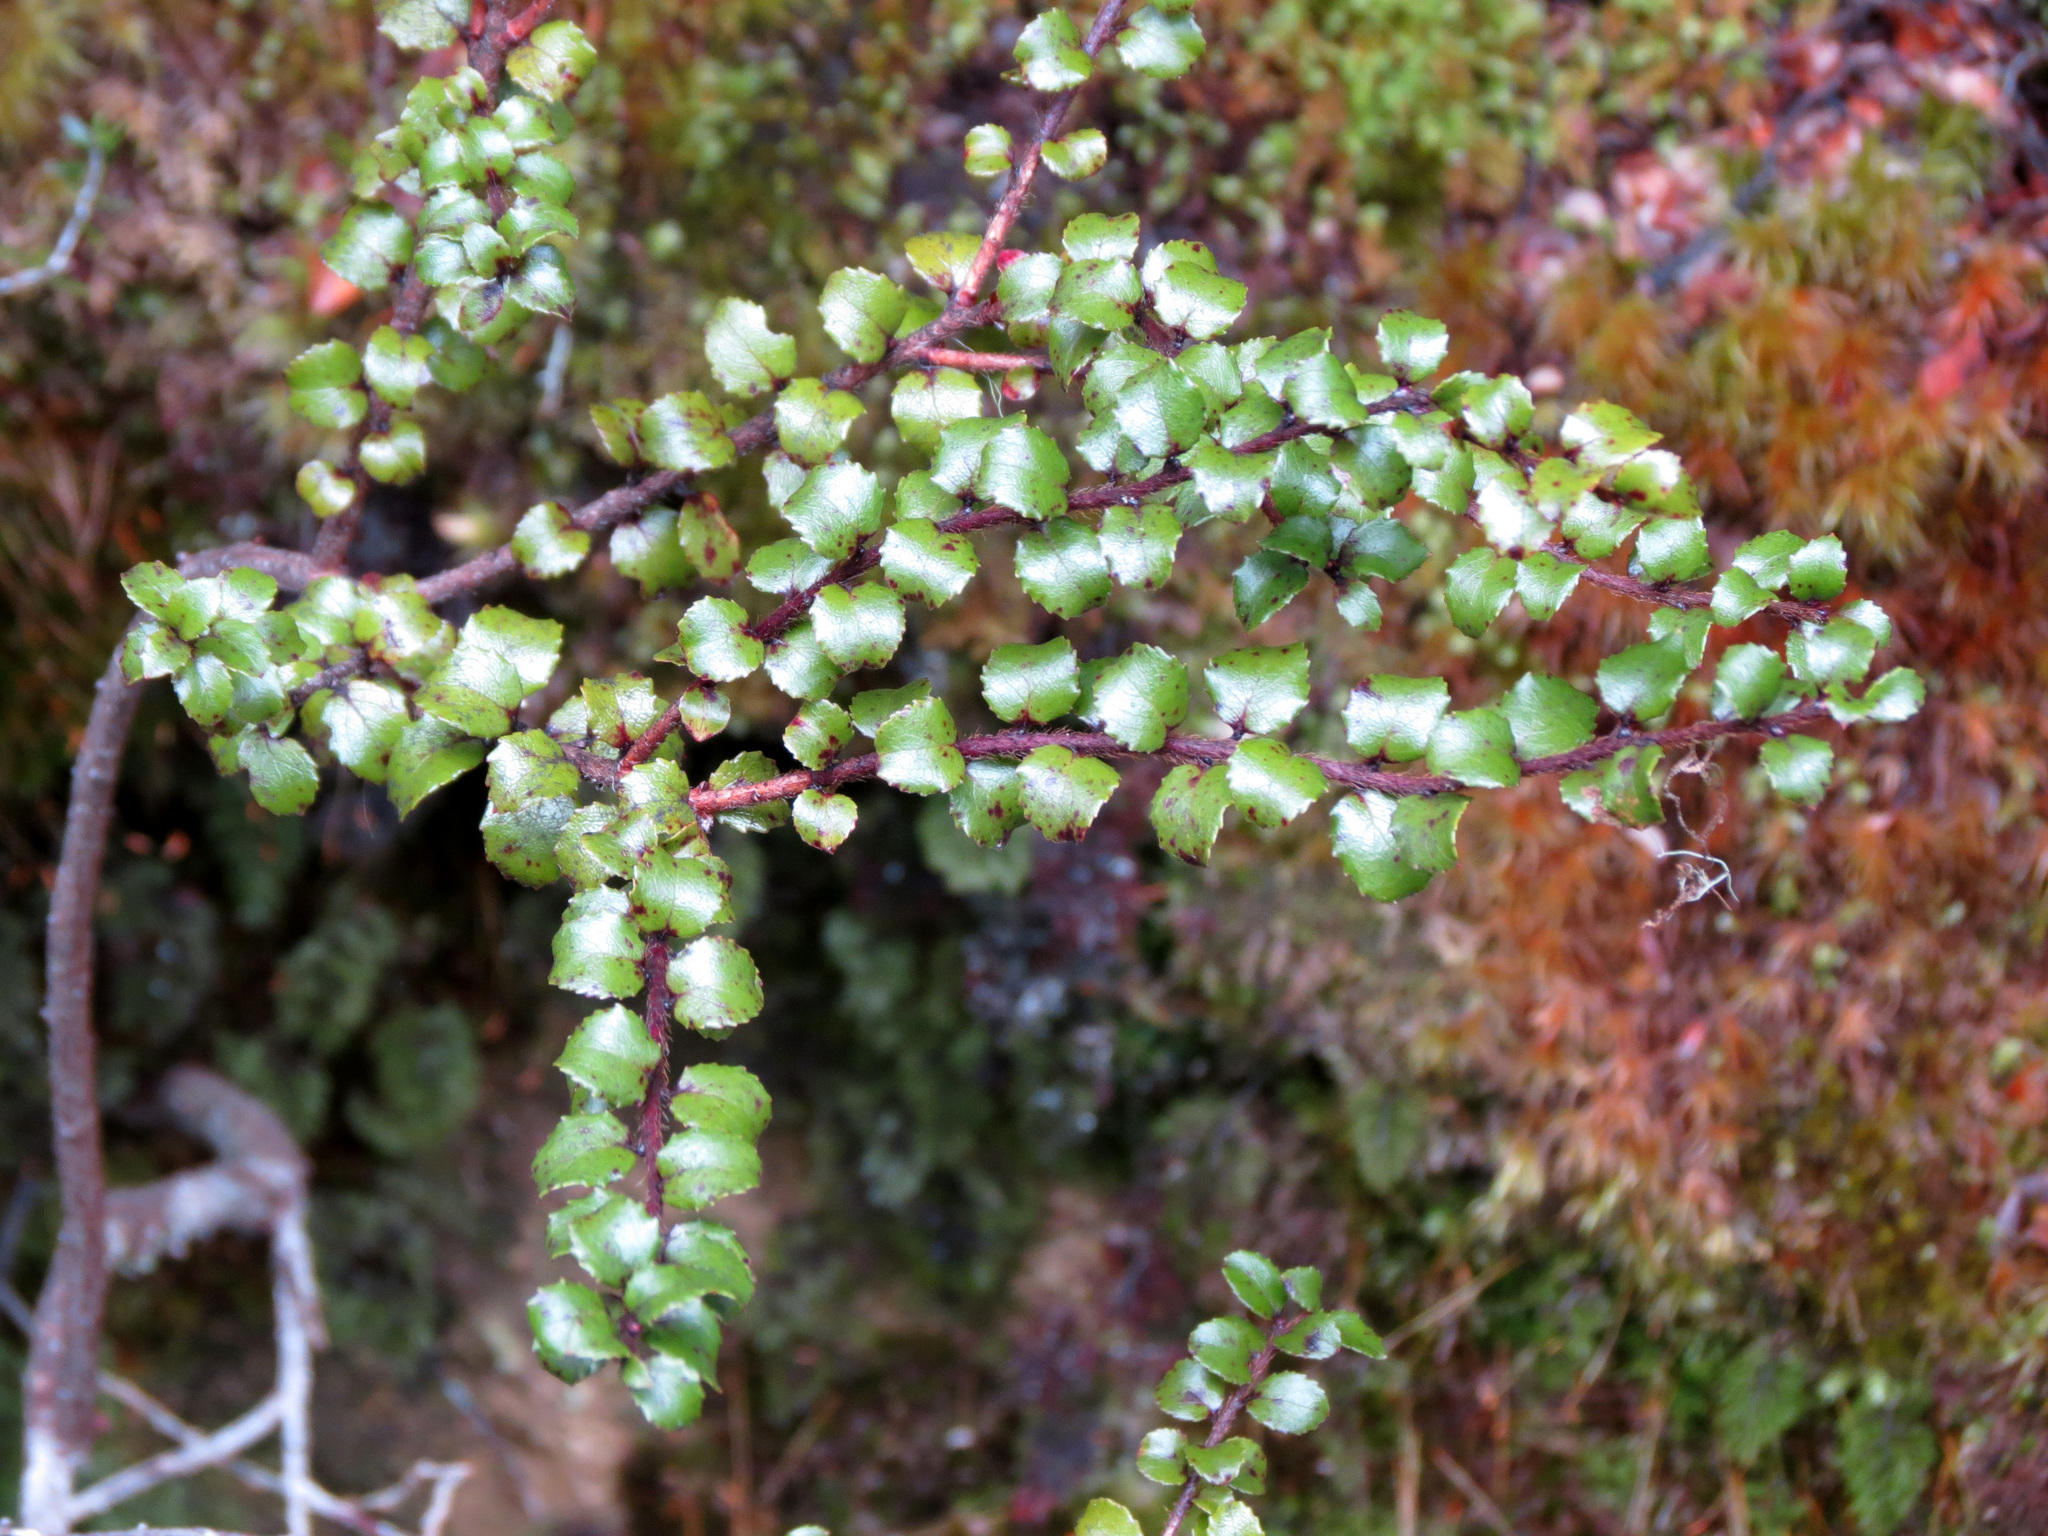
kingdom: Plantae
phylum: Tracheophyta
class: Magnoliopsida
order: Ericales
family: Ericaceae
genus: Gaultheria
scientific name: Gaultheria antipoda
